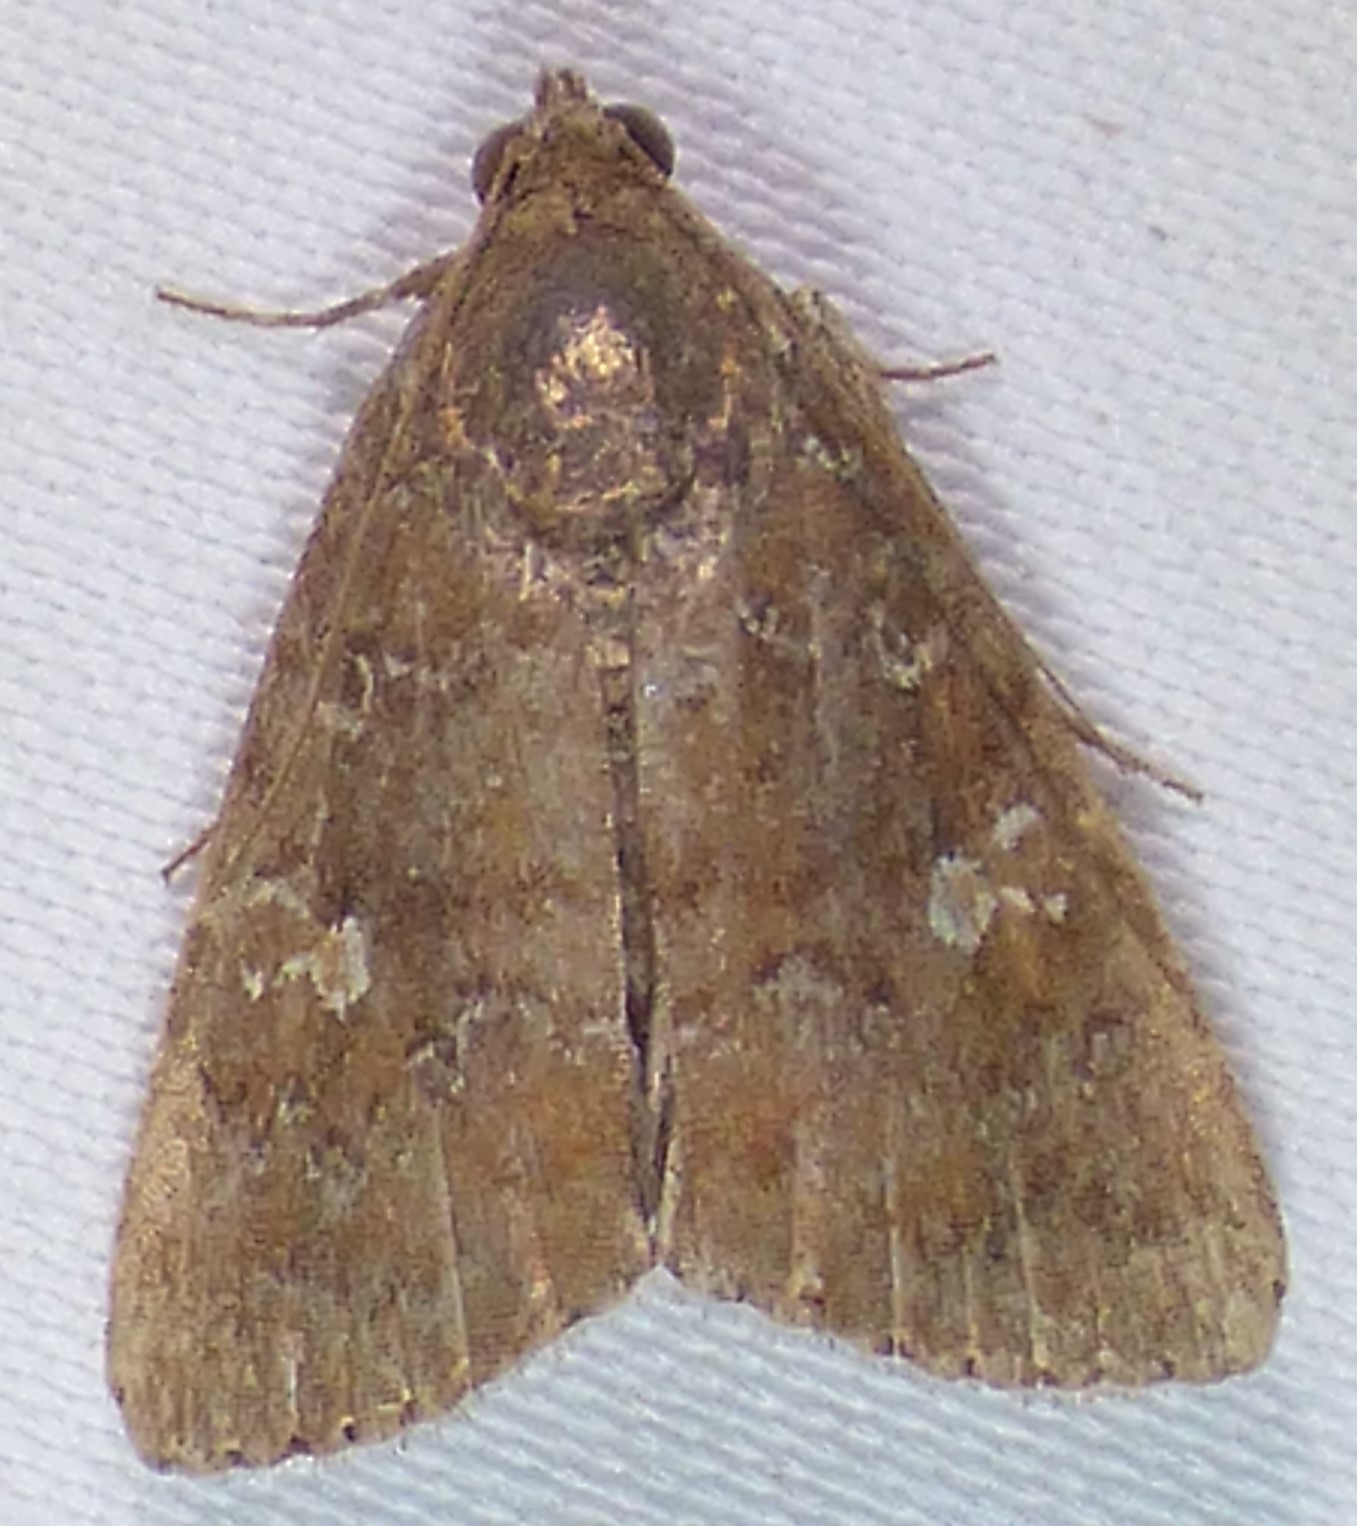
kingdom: Animalia
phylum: Arthropoda
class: Insecta
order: Lepidoptera
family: Noctuidae
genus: Amyna
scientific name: Amyna stricta
